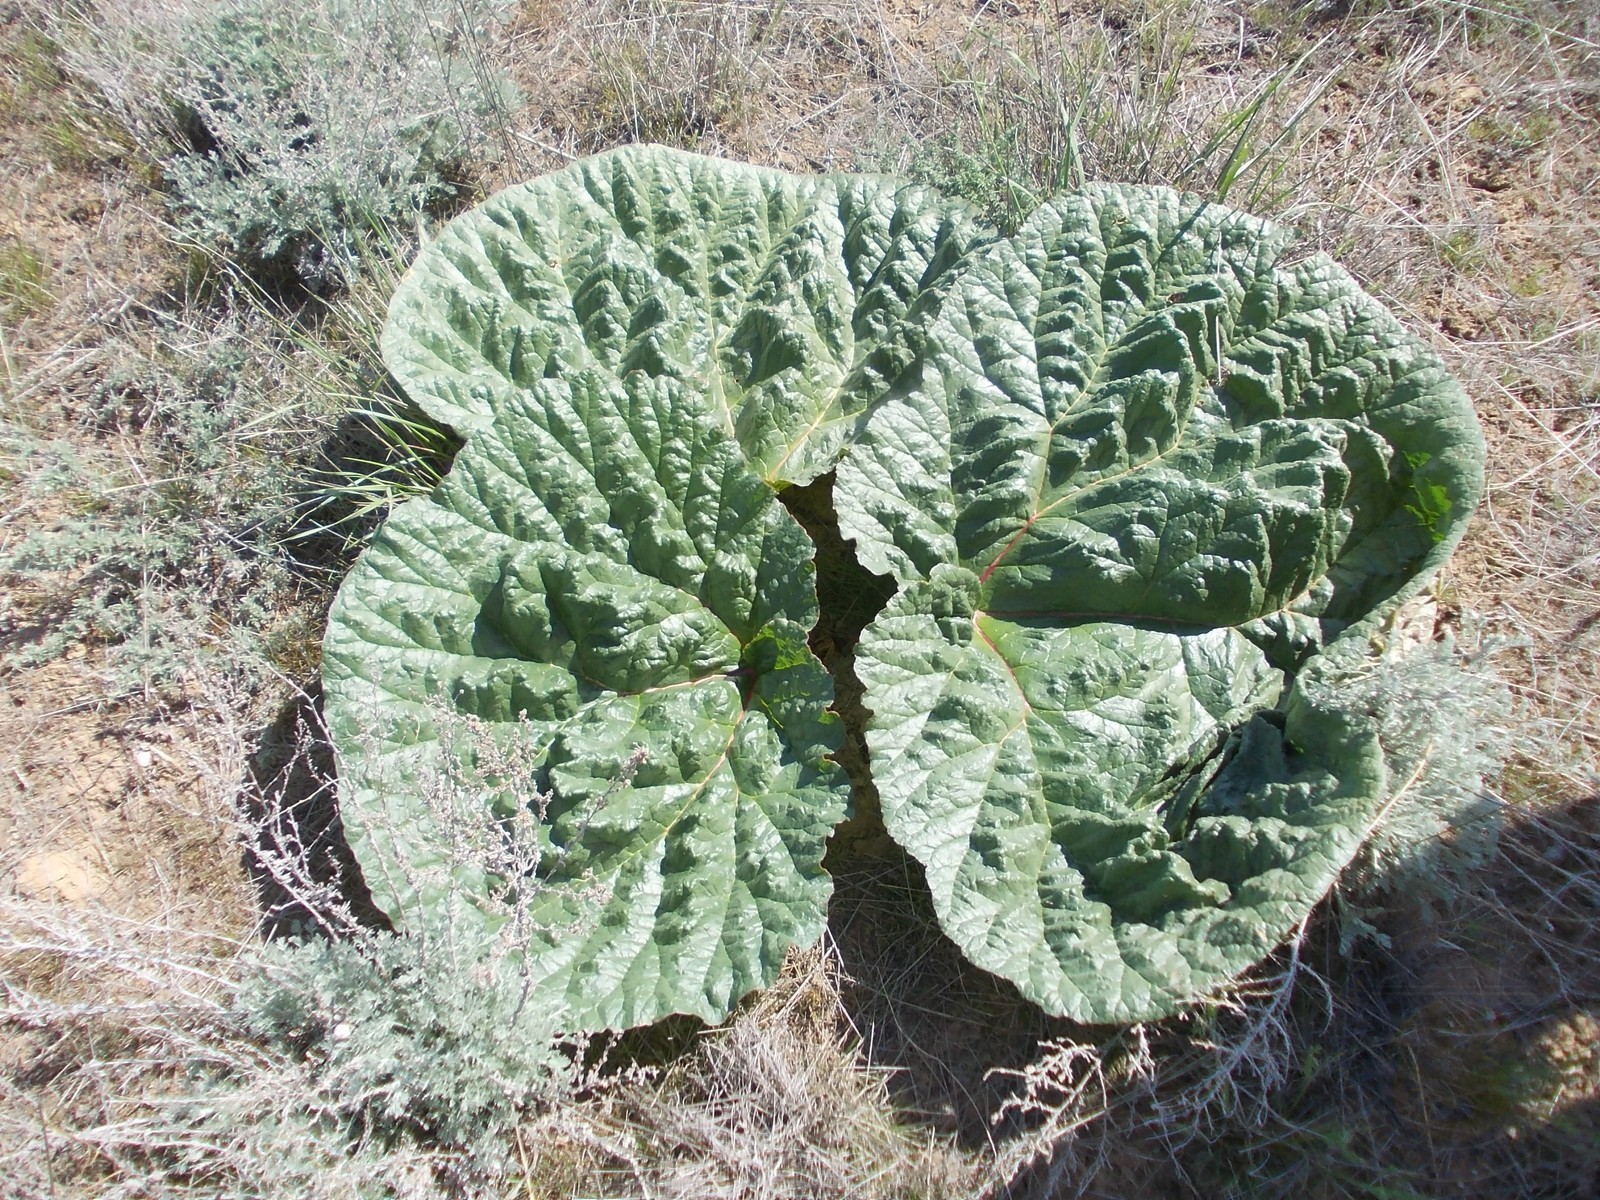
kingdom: Plantae
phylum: Tracheophyta
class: Magnoliopsida
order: Caryophyllales
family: Polygonaceae
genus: Rheum
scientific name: Rheum tataricum
